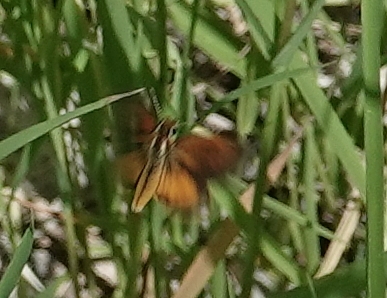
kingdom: Animalia
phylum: Arthropoda
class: Insecta
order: Lepidoptera
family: Hesperiidae
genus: Ancyloxypha
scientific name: Ancyloxypha numitor
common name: Least skipper
